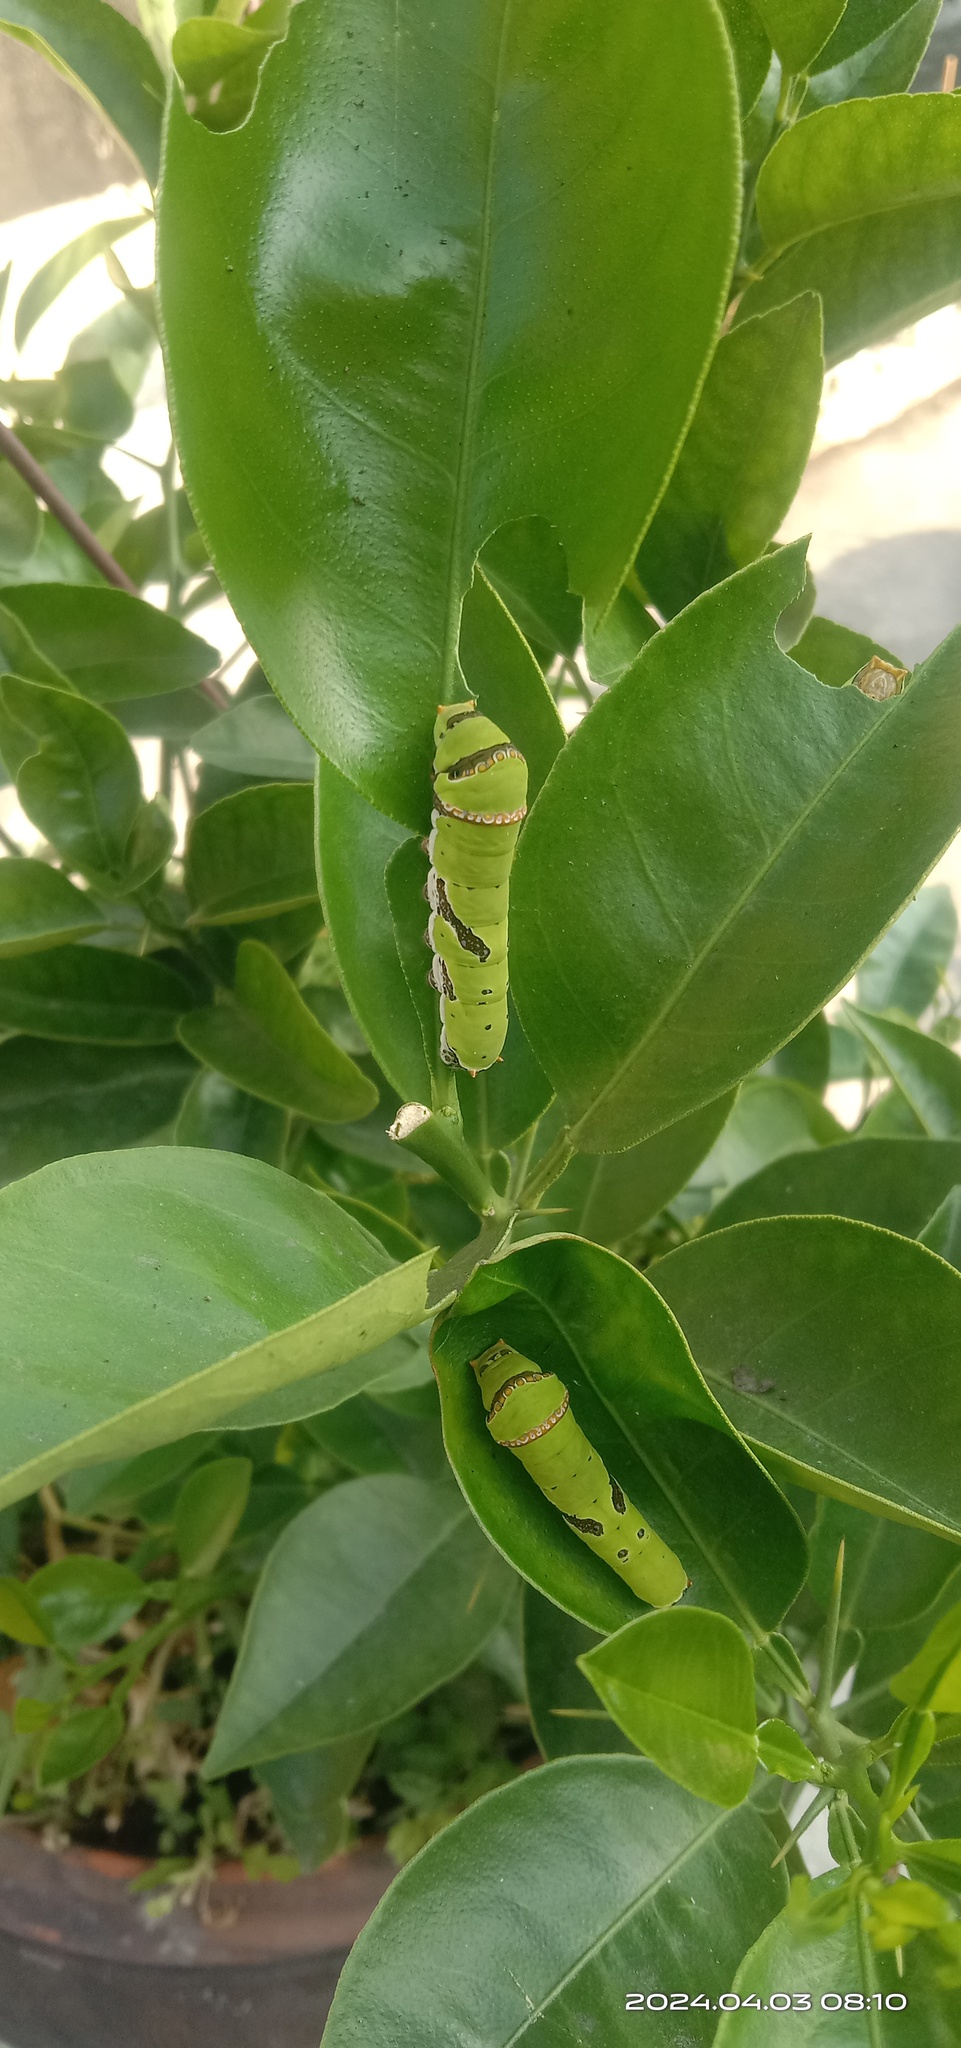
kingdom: Animalia
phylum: Arthropoda
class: Insecta
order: Lepidoptera
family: Papilionidae
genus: Papilio
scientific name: Papilio demoleus
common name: Lime butterfly
